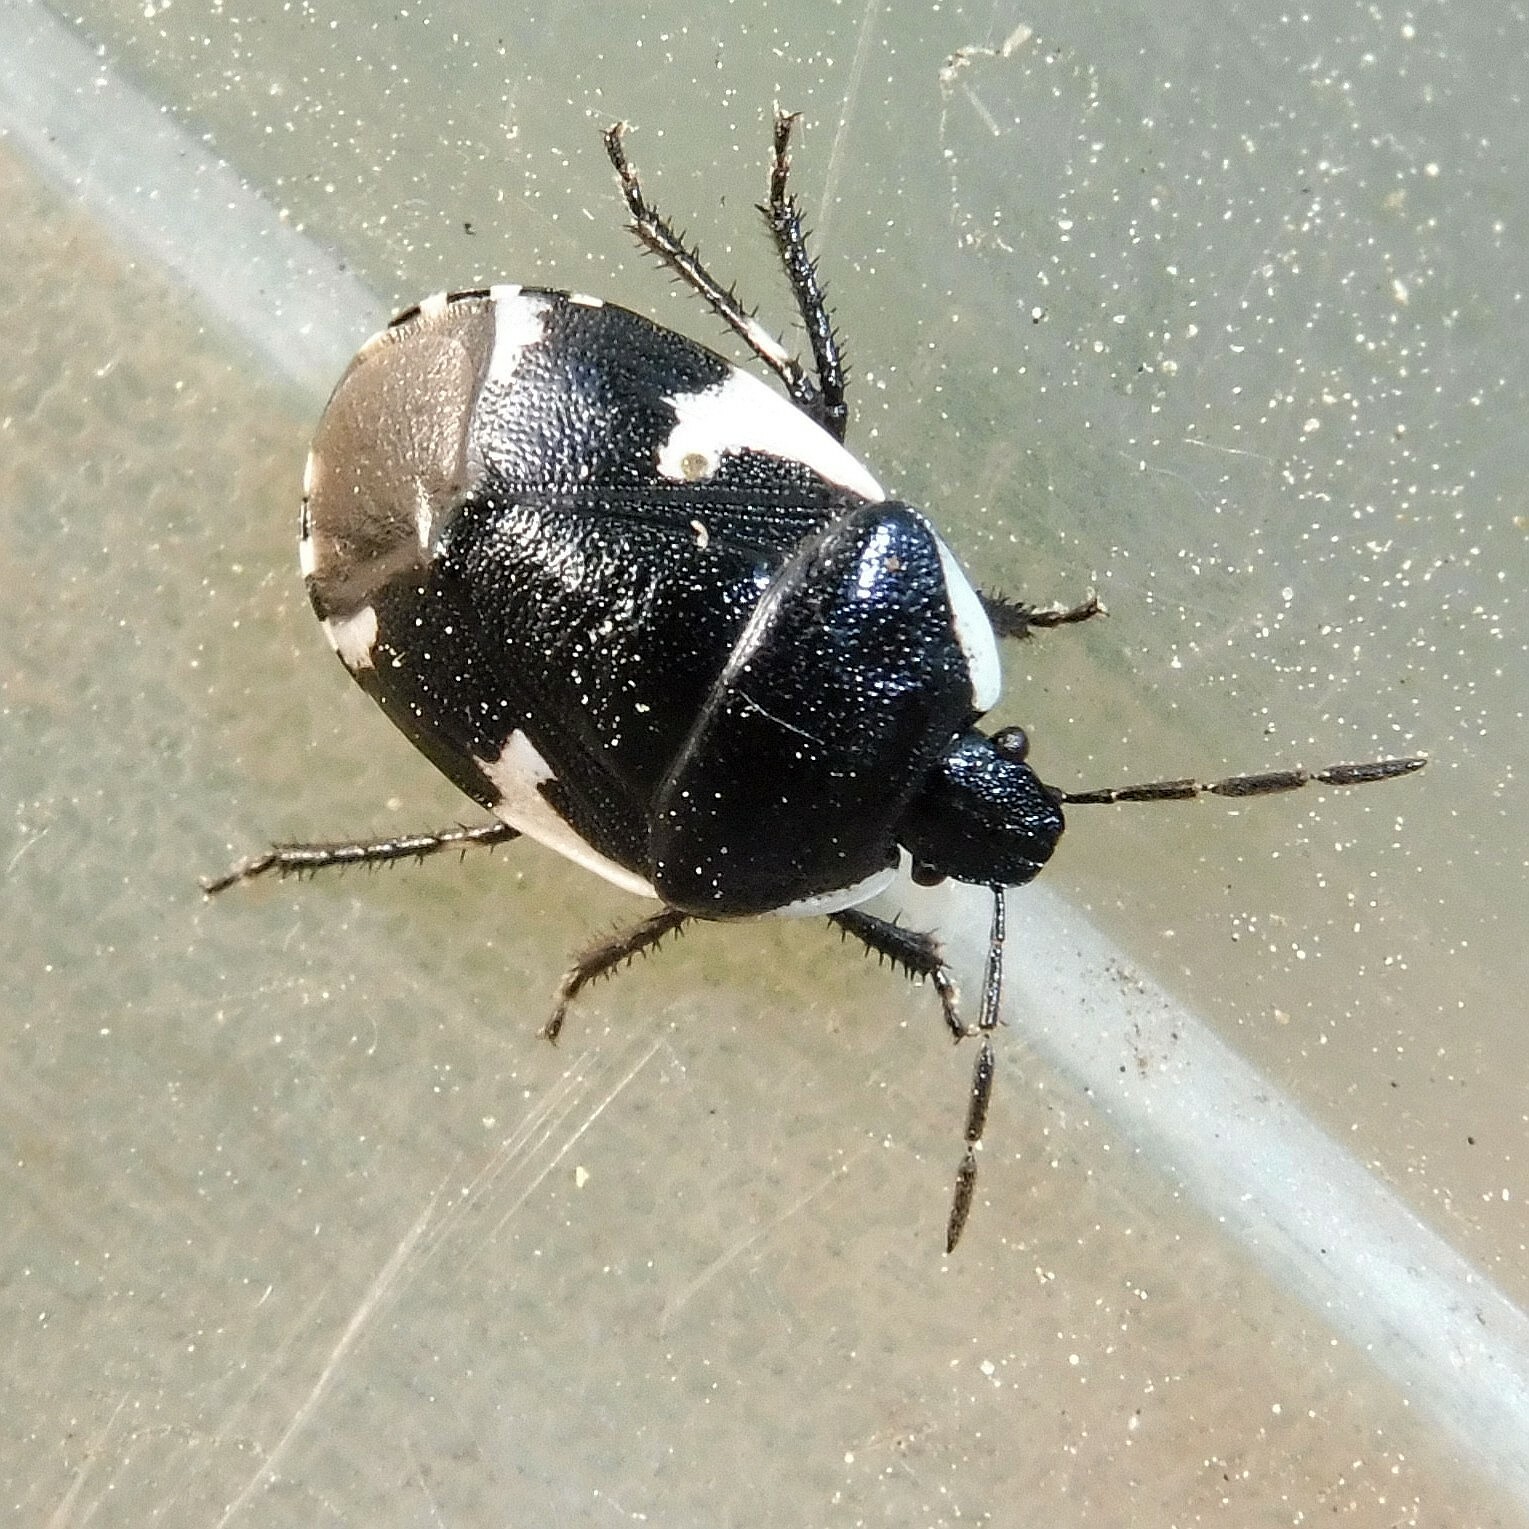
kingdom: Animalia
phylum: Arthropoda
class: Insecta
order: Hemiptera
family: Cydnidae
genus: Tritomegas
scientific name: Tritomegas sexmaculatus
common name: Rambur's pied shieldbug
